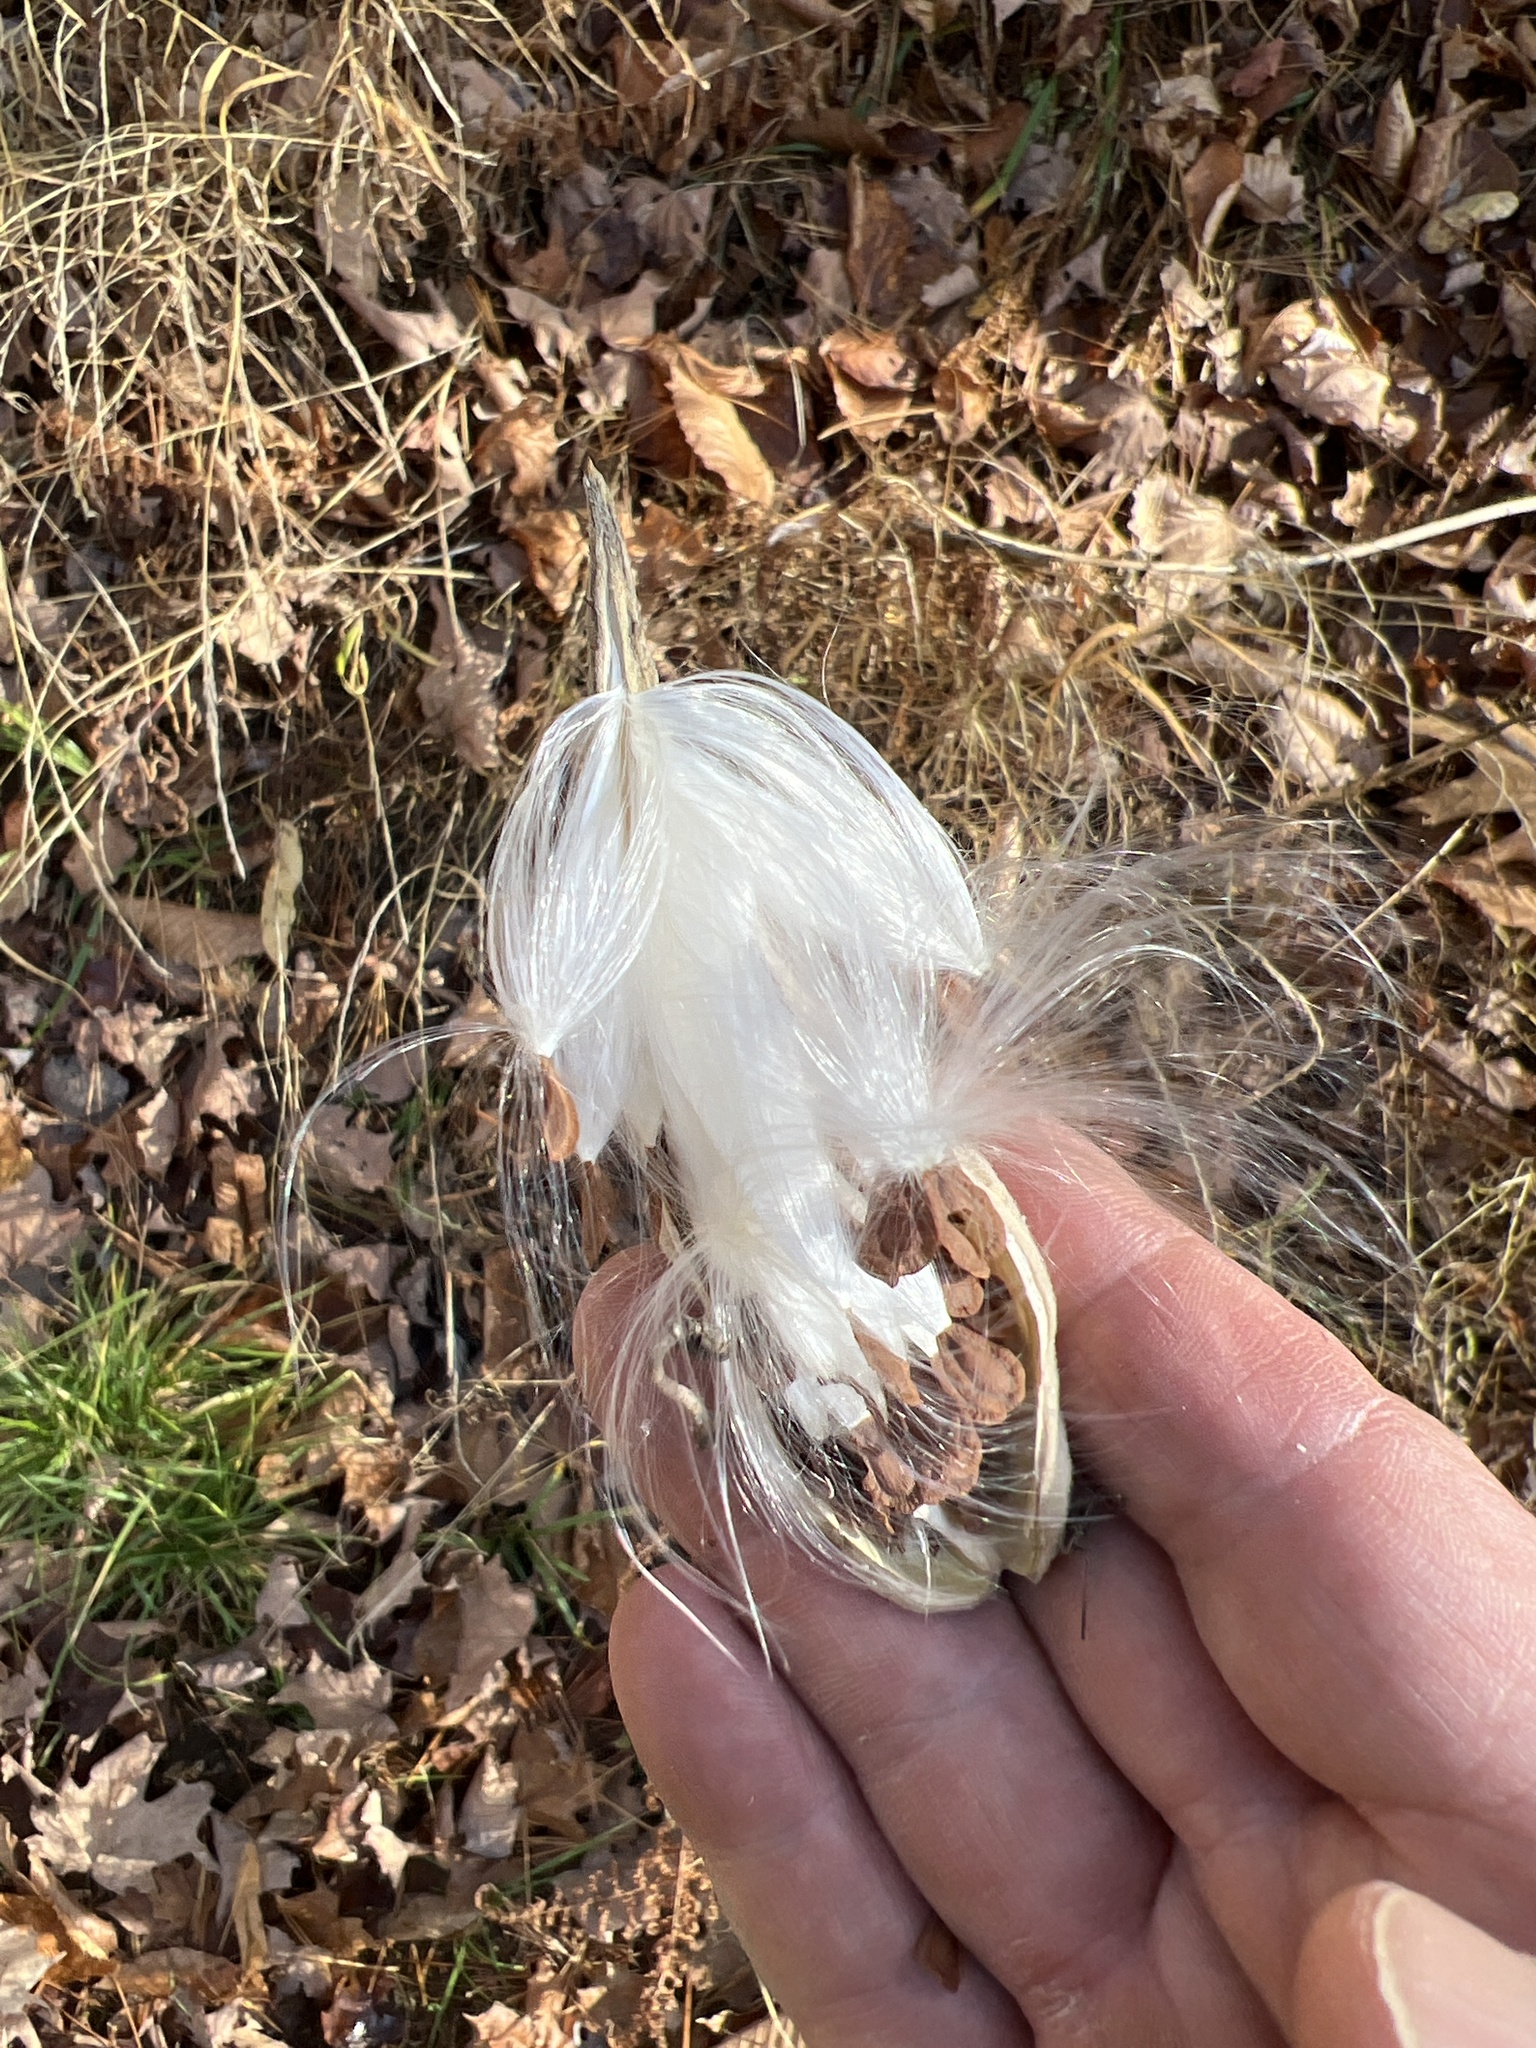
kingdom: Plantae
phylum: Tracheophyta
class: Magnoliopsida
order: Gentianales
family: Apocynaceae
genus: Asclepias
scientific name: Asclepias syriaca
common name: Common milkweed
